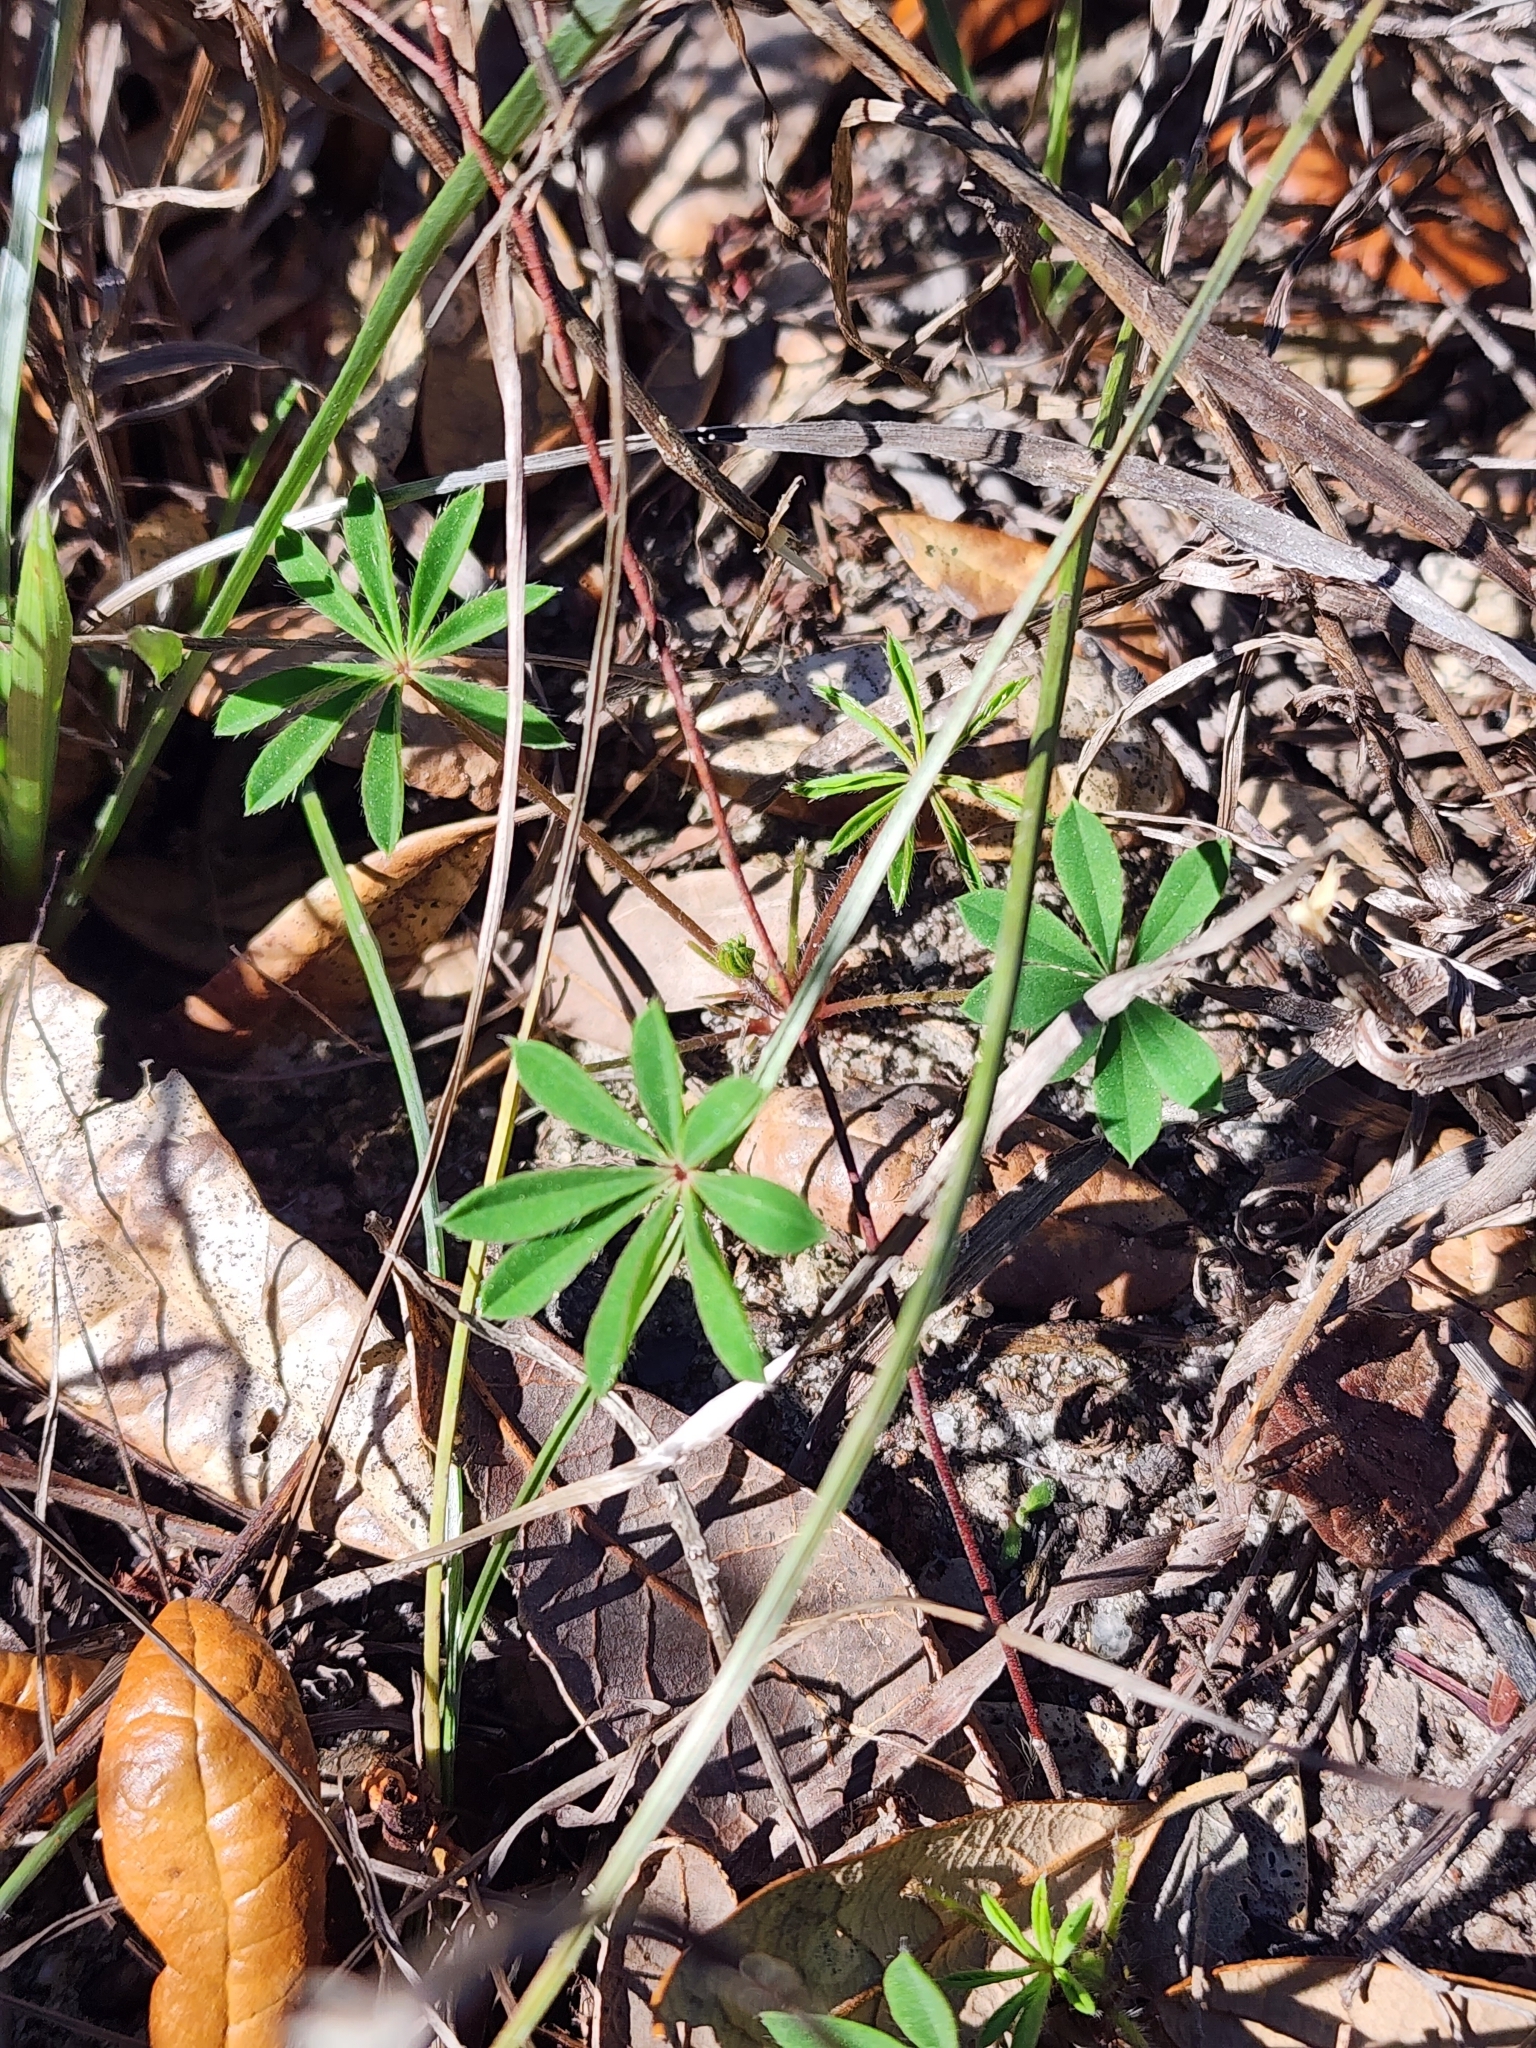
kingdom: Plantae
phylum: Tracheophyta
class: Magnoliopsida
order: Fabales
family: Fabaceae
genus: Lupinus
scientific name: Lupinus perennis
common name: Sundial lupine
